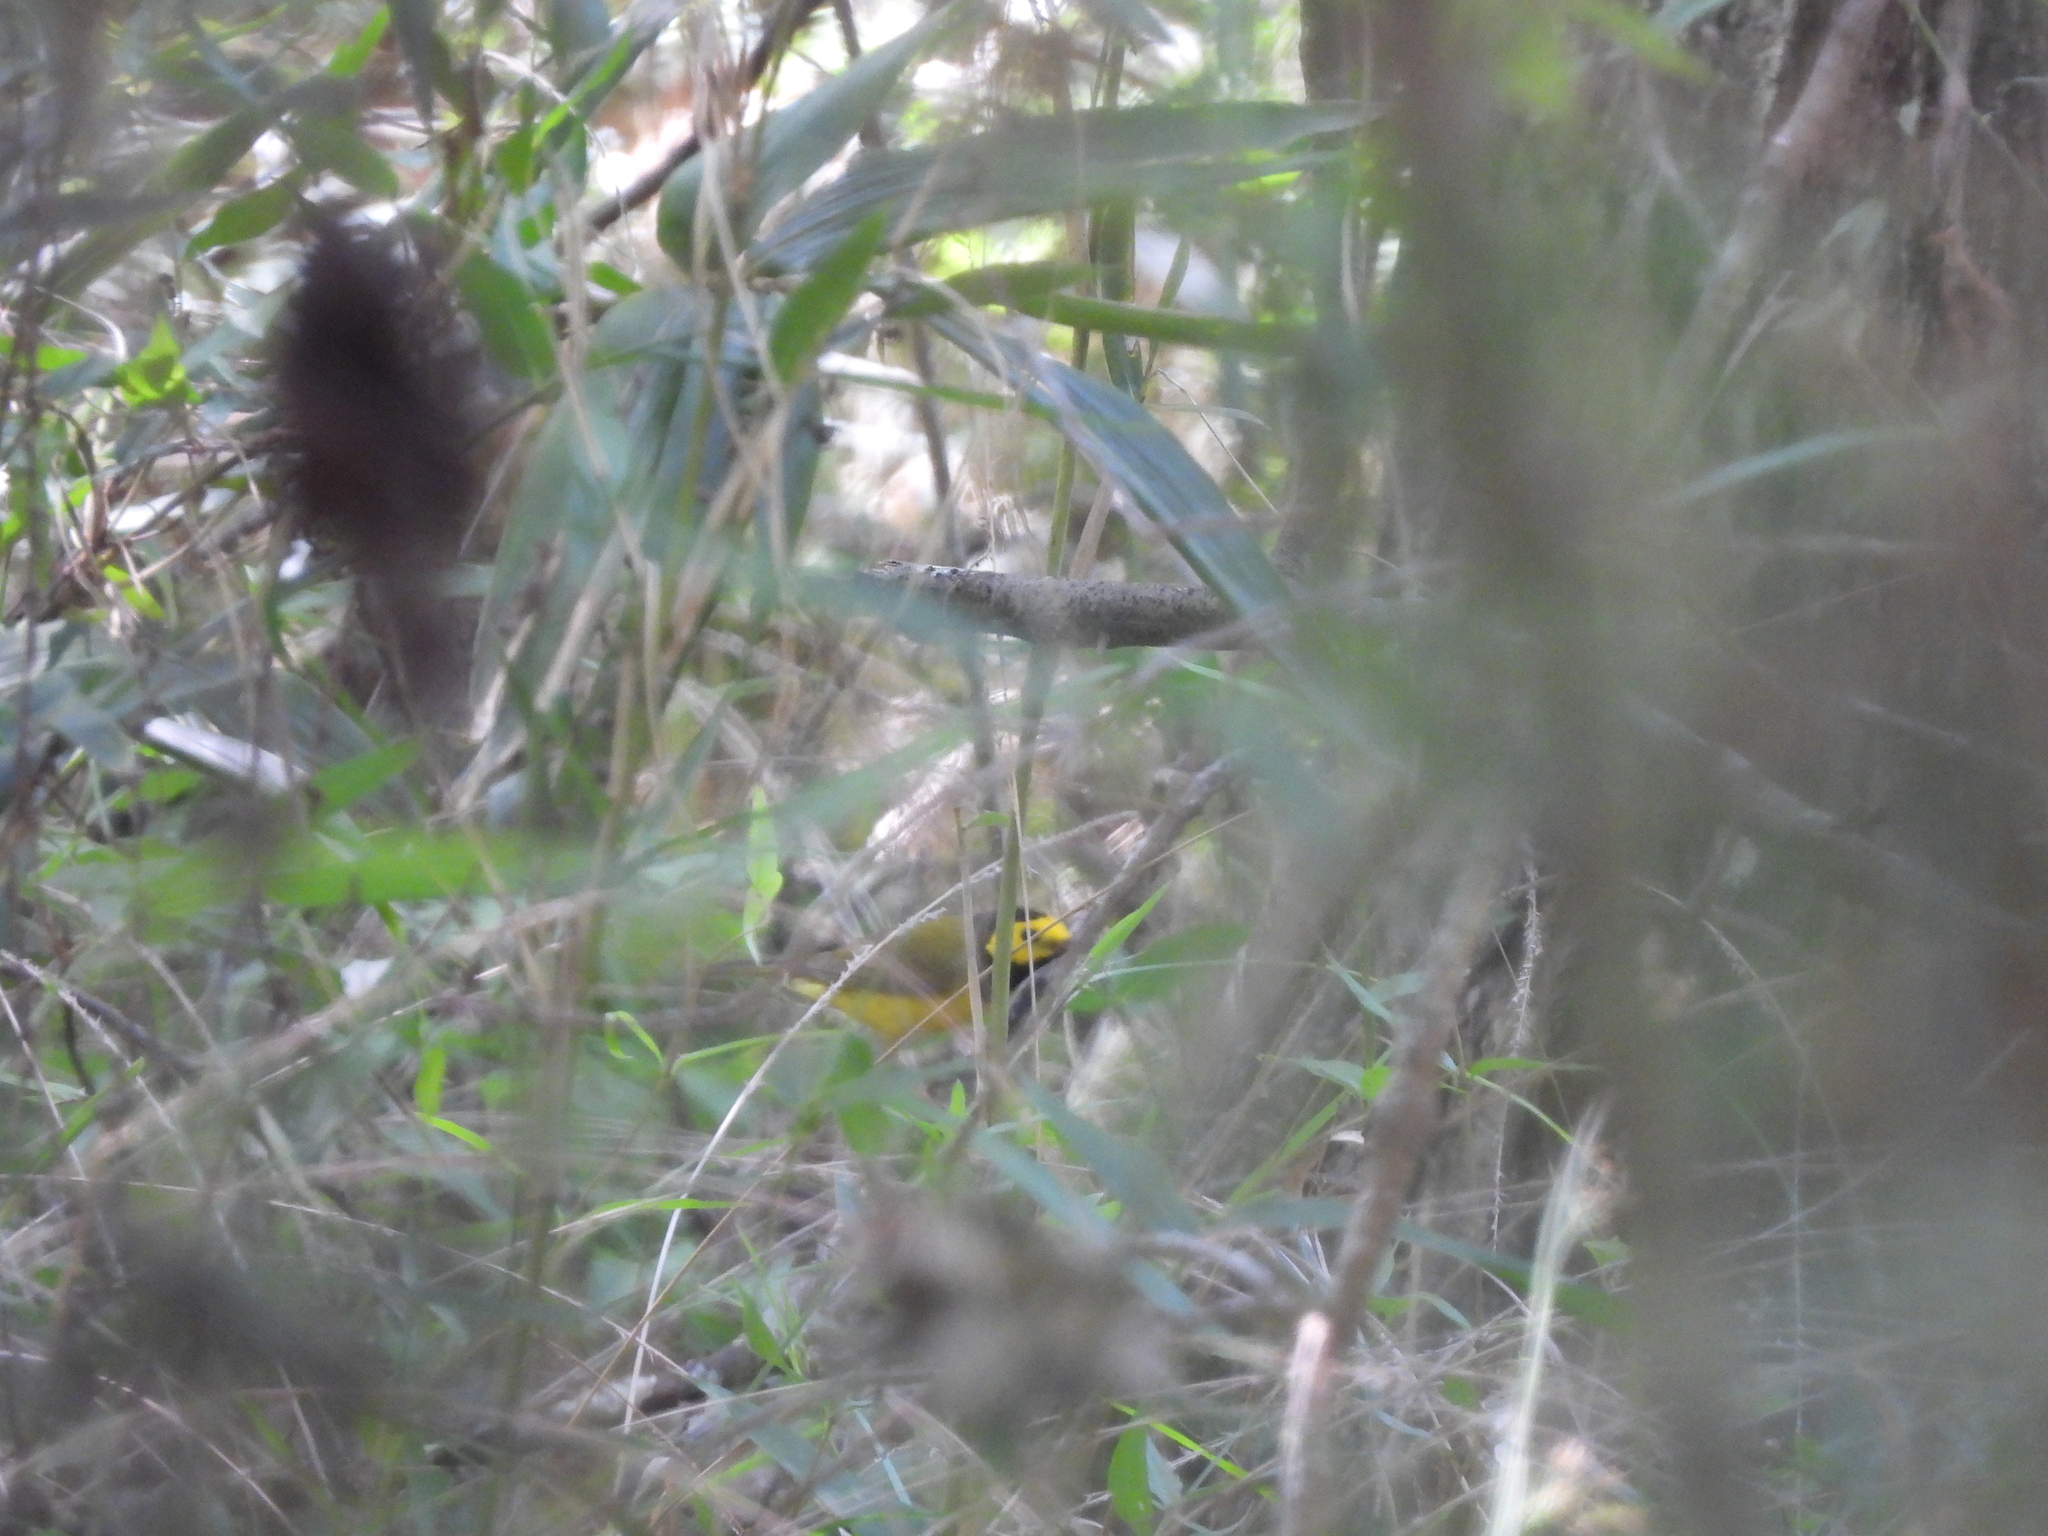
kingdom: Animalia
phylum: Chordata
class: Aves
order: Passeriformes
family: Parulidae
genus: Setophaga
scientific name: Setophaga citrina
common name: Hooded warbler
